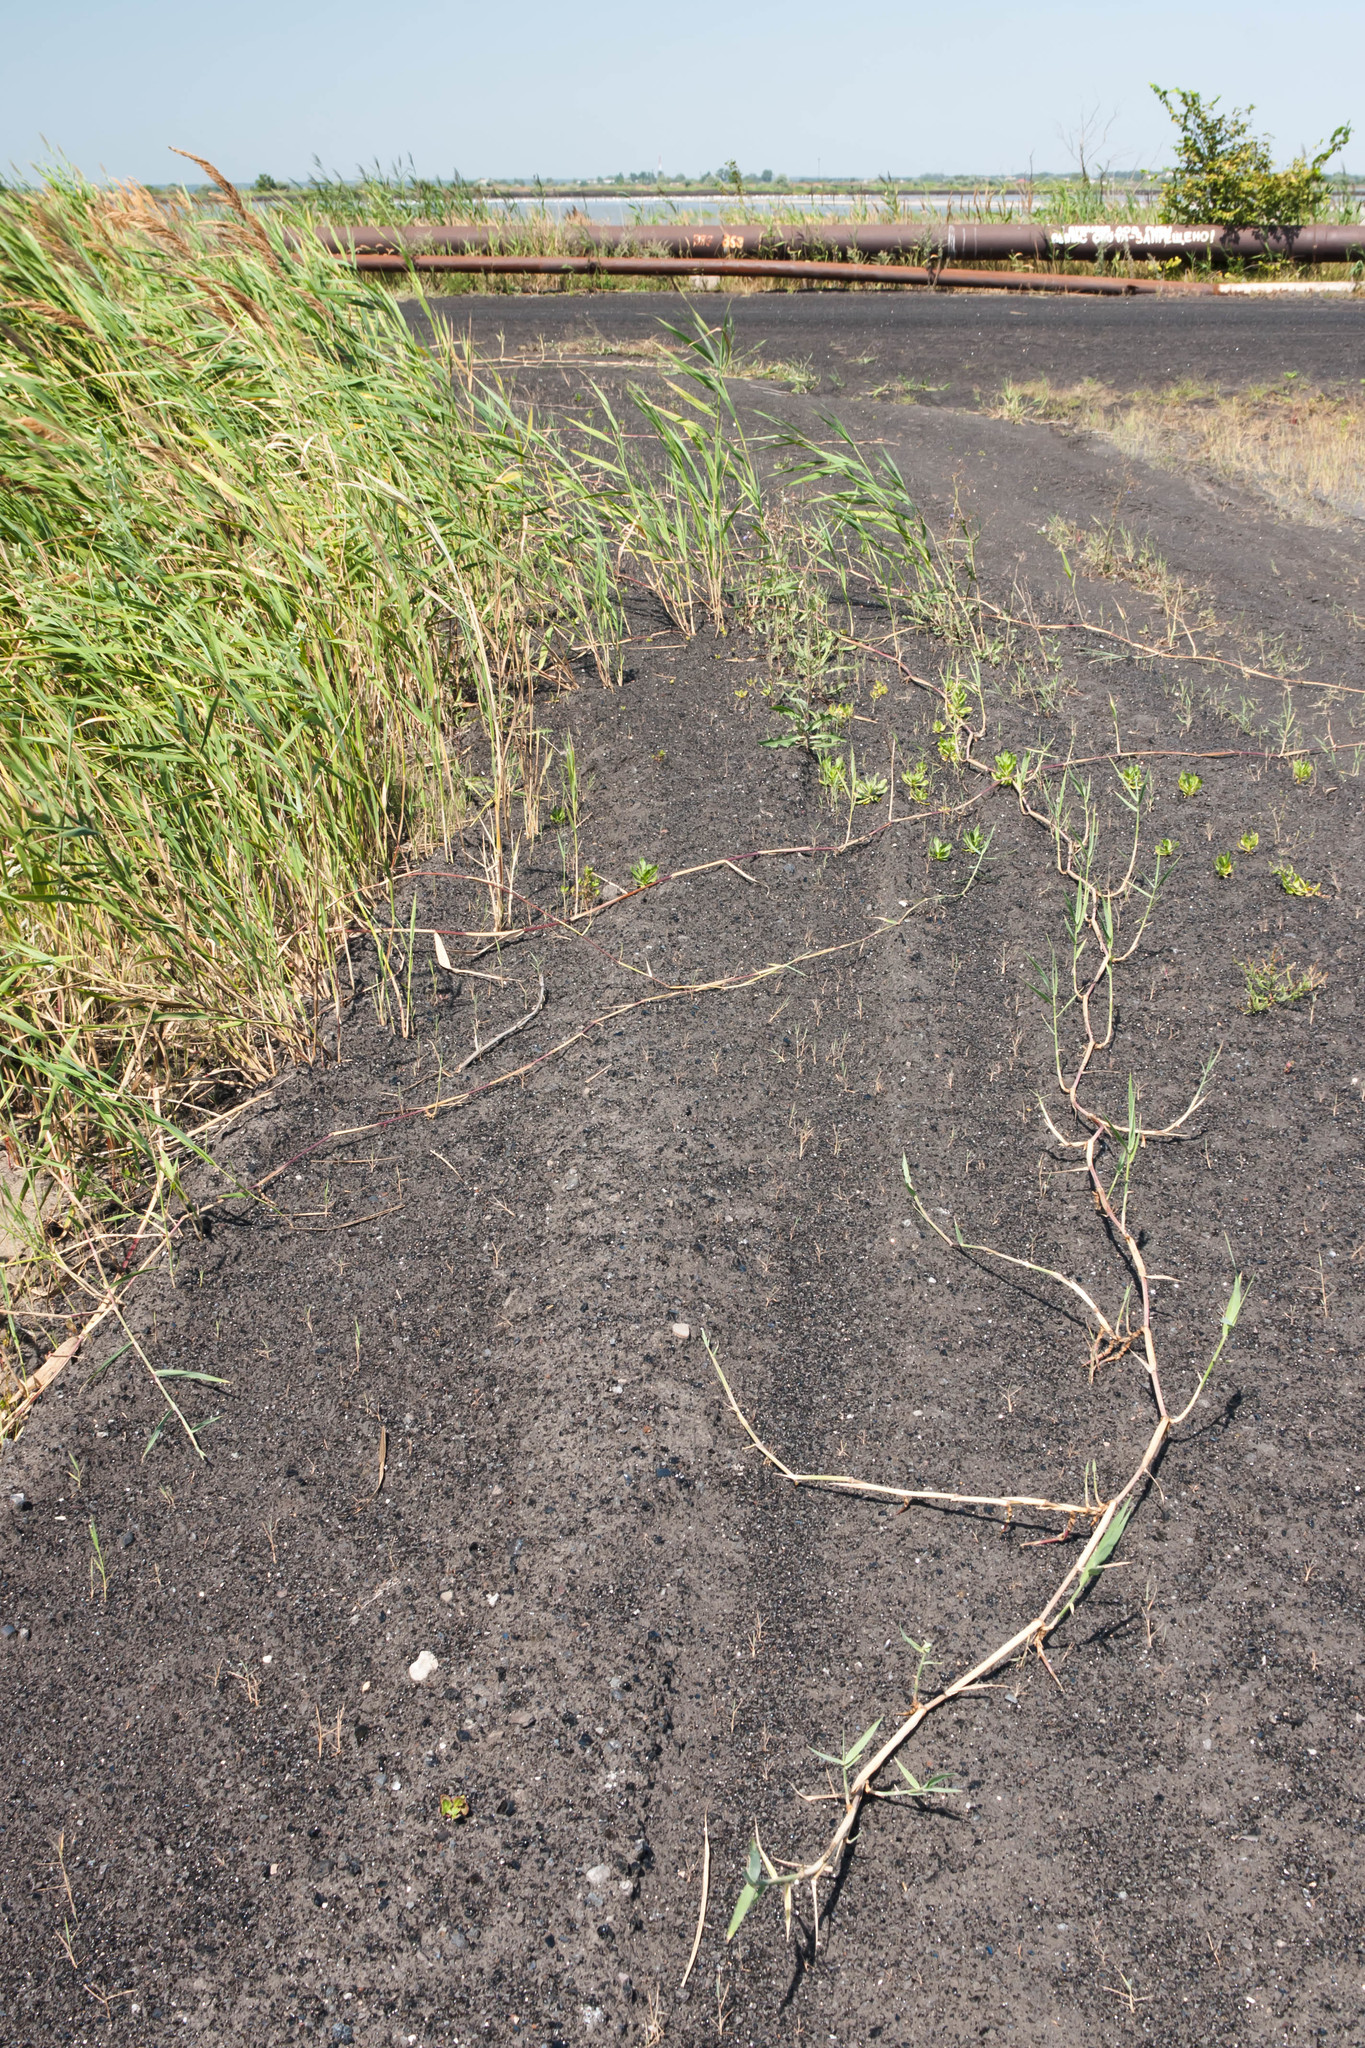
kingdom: Plantae
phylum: Tracheophyta
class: Liliopsida
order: Poales
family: Poaceae
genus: Phragmites
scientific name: Phragmites australis
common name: Common reed
